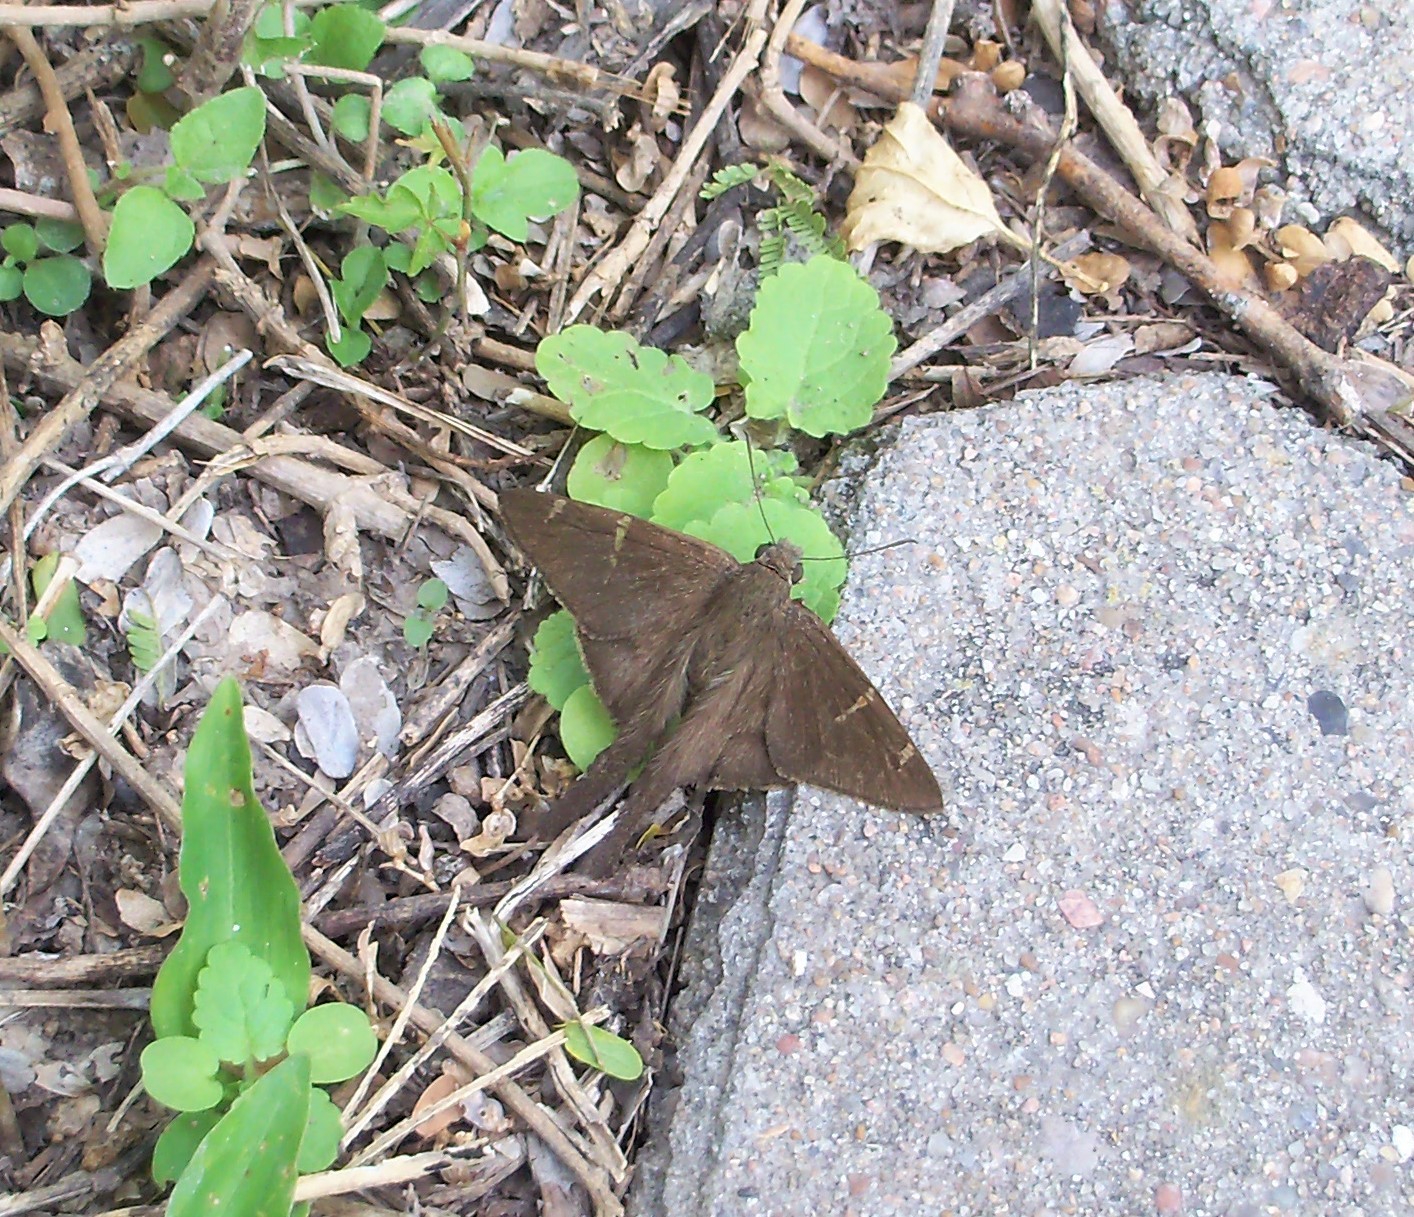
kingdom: Animalia
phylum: Arthropoda
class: Insecta
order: Lepidoptera
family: Hesperiidae
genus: Urbanus
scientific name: Urbanus procne
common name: Brown longtail
